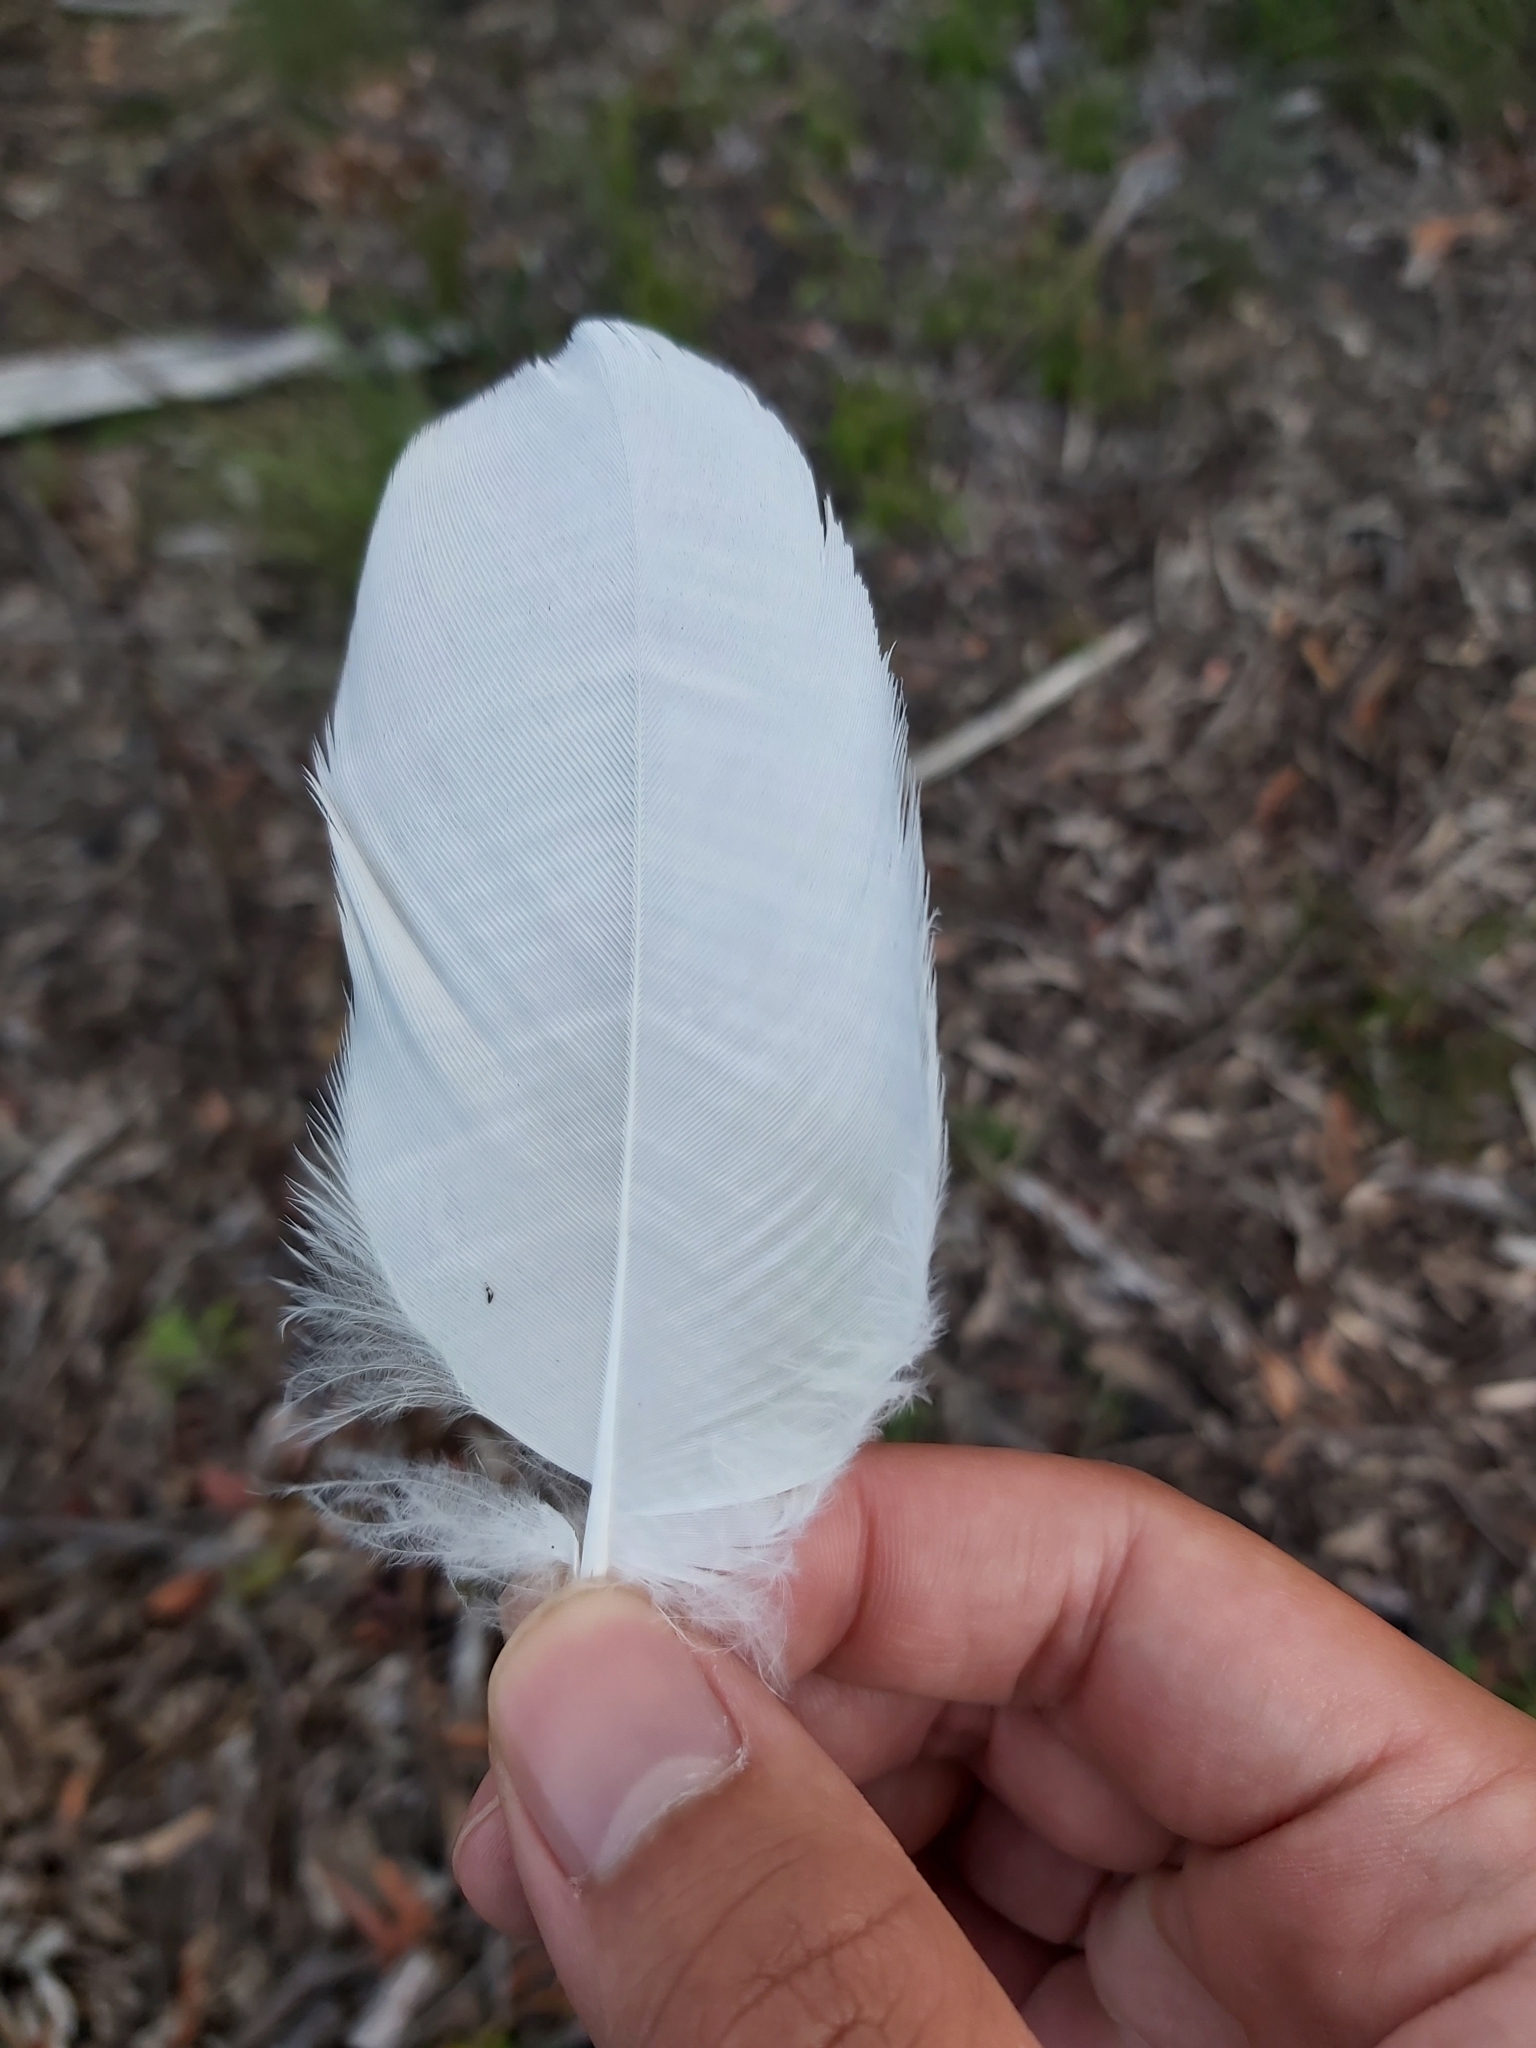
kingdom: Animalia
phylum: Chordata
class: Aves
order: Psittaciformes
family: Psittacidae
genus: Cacatua
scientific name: Cacatua galerita
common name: Sulphur-crested cockatoo
